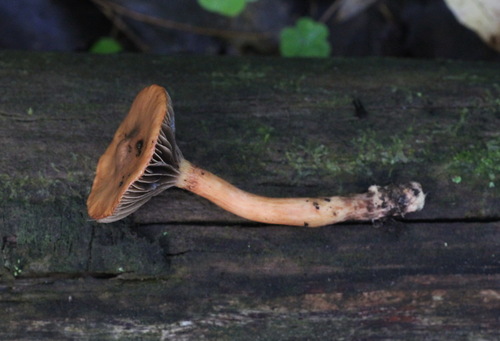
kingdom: Fungi
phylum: Basidiomycota
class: Agaricomycetes
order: Boletales
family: Gomphidiaceae
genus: Chroogomphus
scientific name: Chroogomphus rutilus
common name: Copper spike
